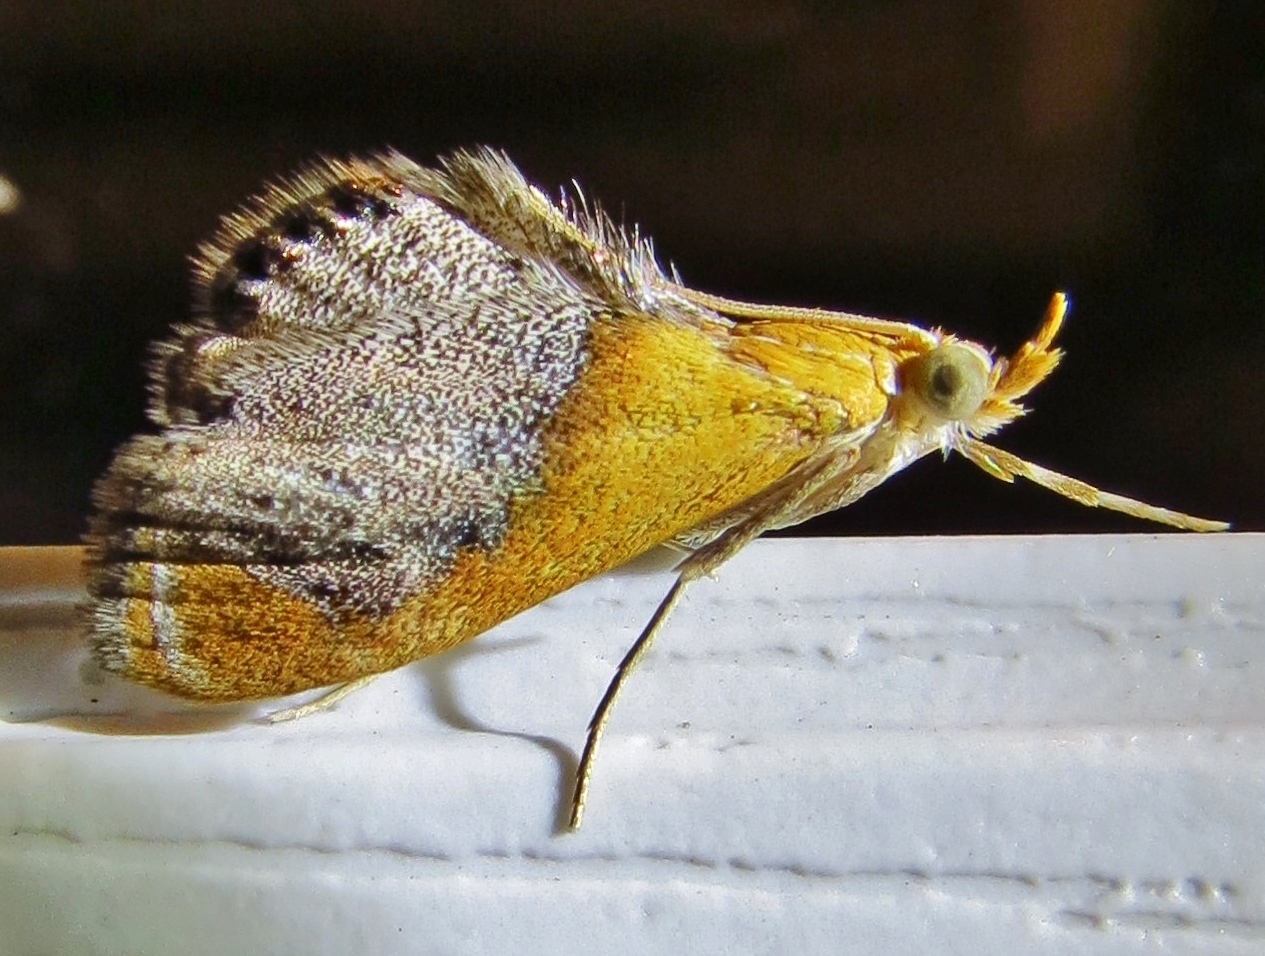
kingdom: Animalia
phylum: Arthropoda
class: Insecta
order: Lepidoptera
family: Crambidae
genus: Chalcoela
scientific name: Chalcoela iphitalis
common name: Sooty-winged chalcoela moth
